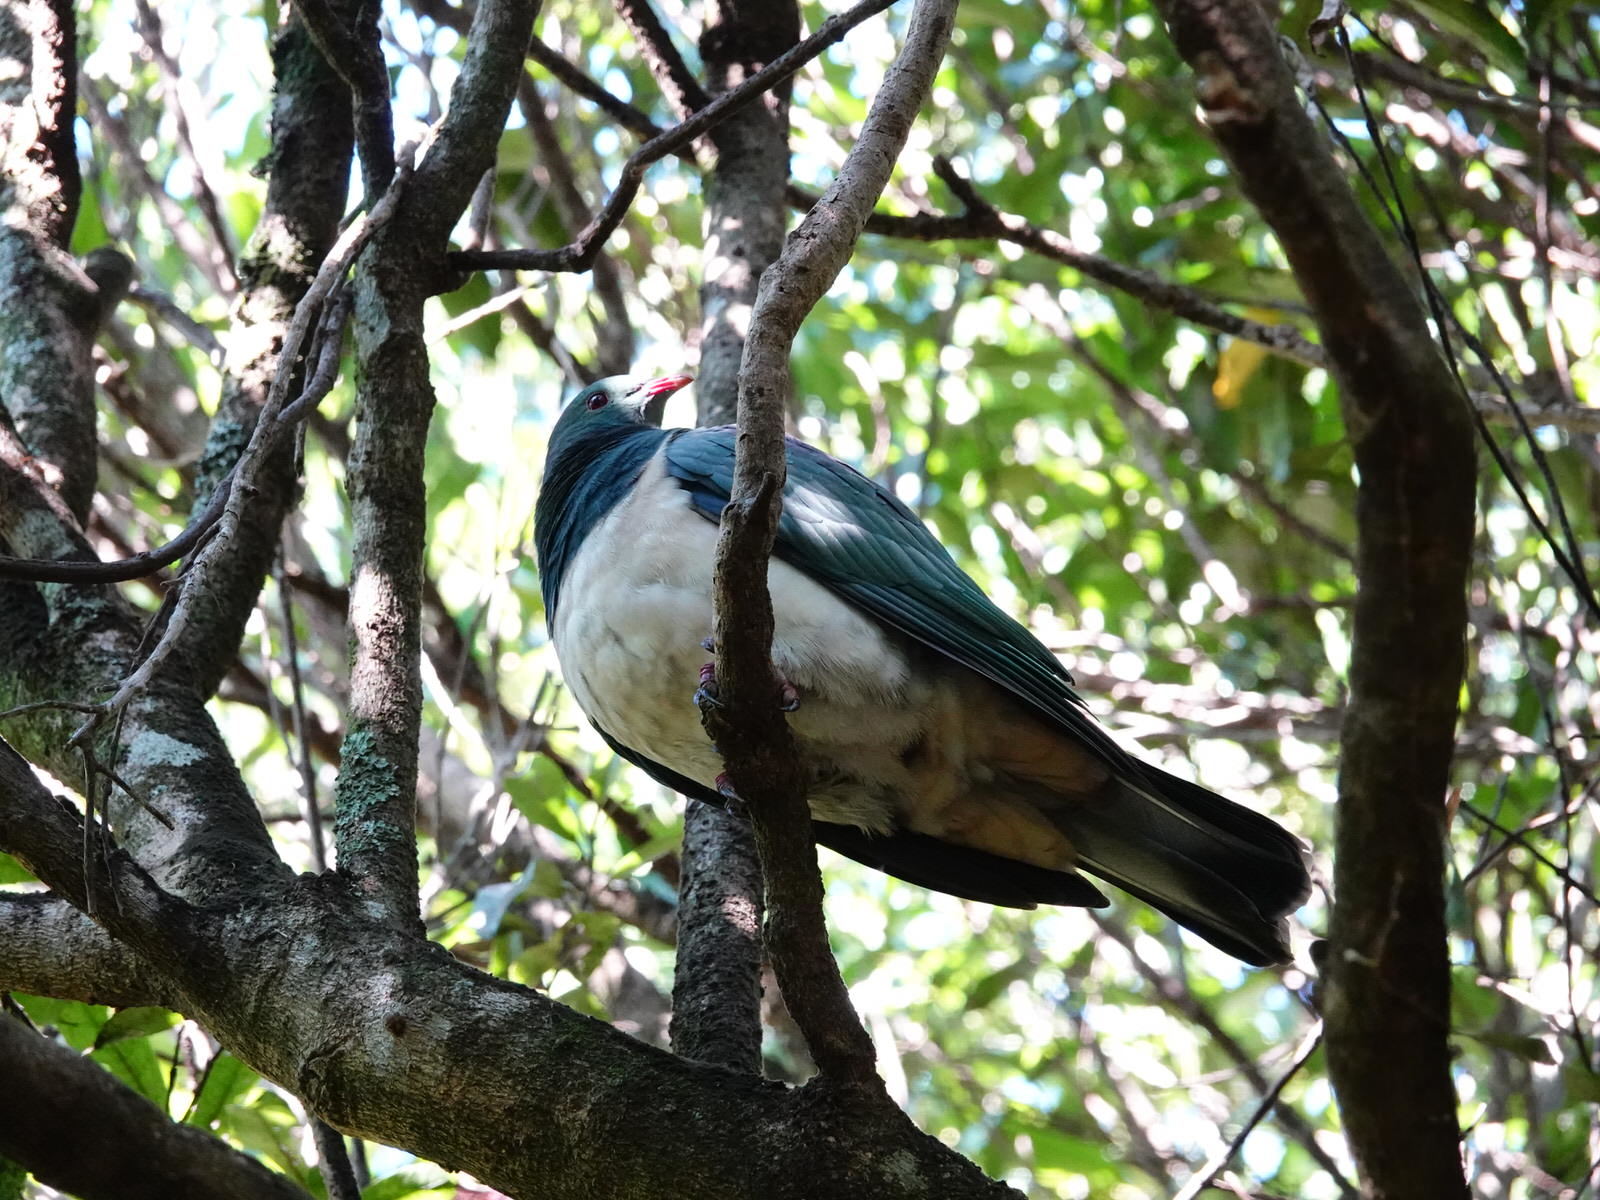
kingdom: Animalia
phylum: Chordata
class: Aves
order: Columbiformes
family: Columbidae
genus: Hemiphaga
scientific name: Hemiphaga novaeseelandiae
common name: New zealand pigeon
